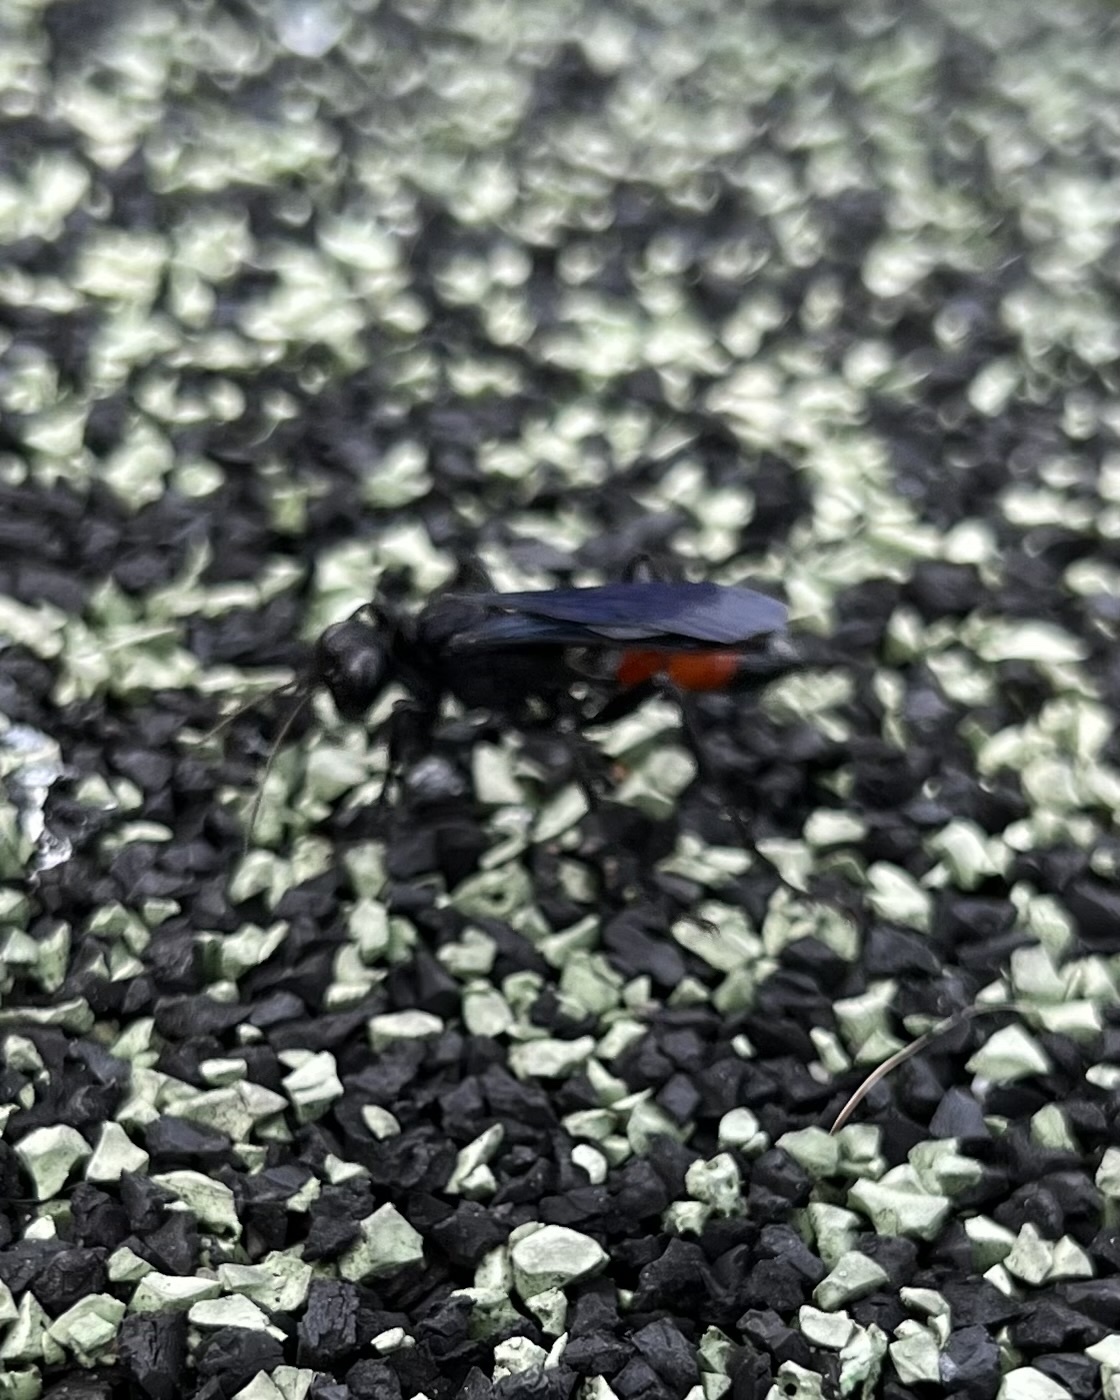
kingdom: Animalia
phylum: Arthropoda
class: Insecta
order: Hymenoptera
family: Sphecidae
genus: Palmodes
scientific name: Palmodes dimidiatus
